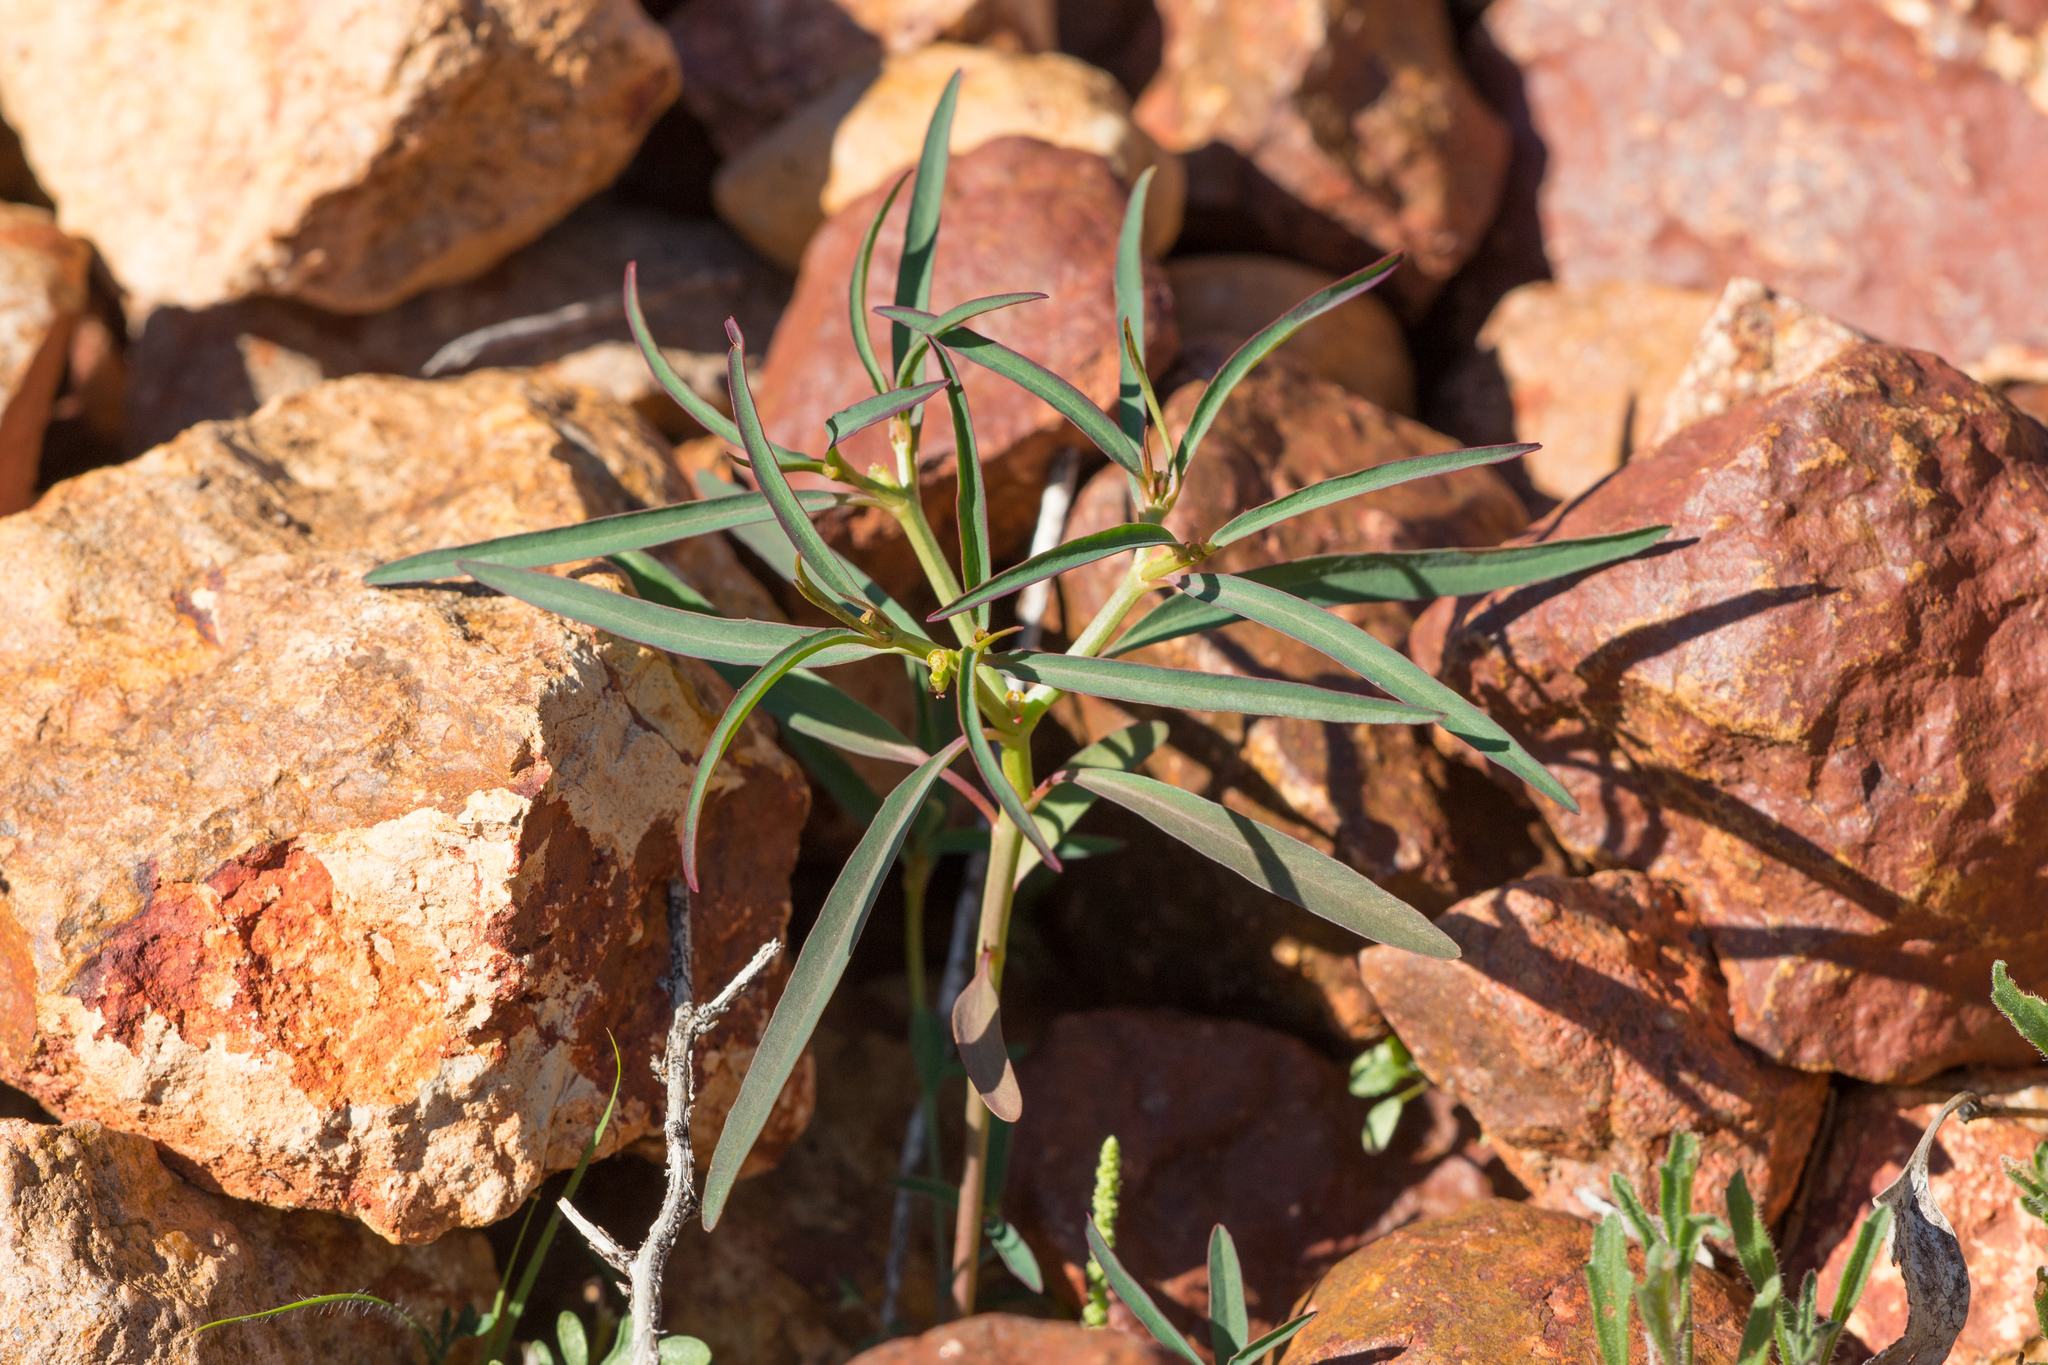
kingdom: Plantae
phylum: Tracheophyta
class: Magnoliopsida
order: Malpighiales
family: Euphorbiaceae
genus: Euphorbia
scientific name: Euphorbia tannensis
